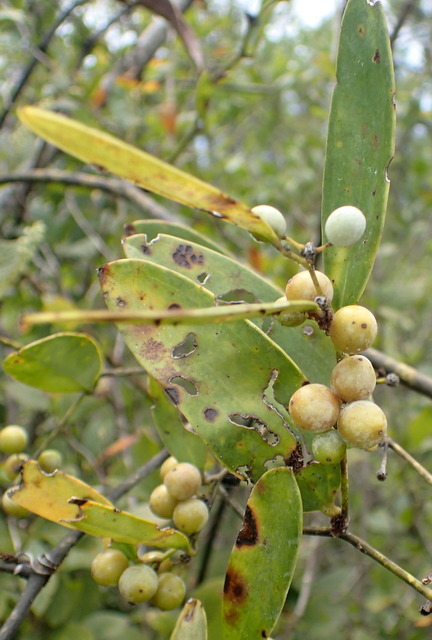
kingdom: Plantae
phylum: Tracheophyta
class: Liliopsida
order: Liliales
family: Smilacaceae
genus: Smilax
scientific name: Smilax laurifolia
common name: Bamboovine
